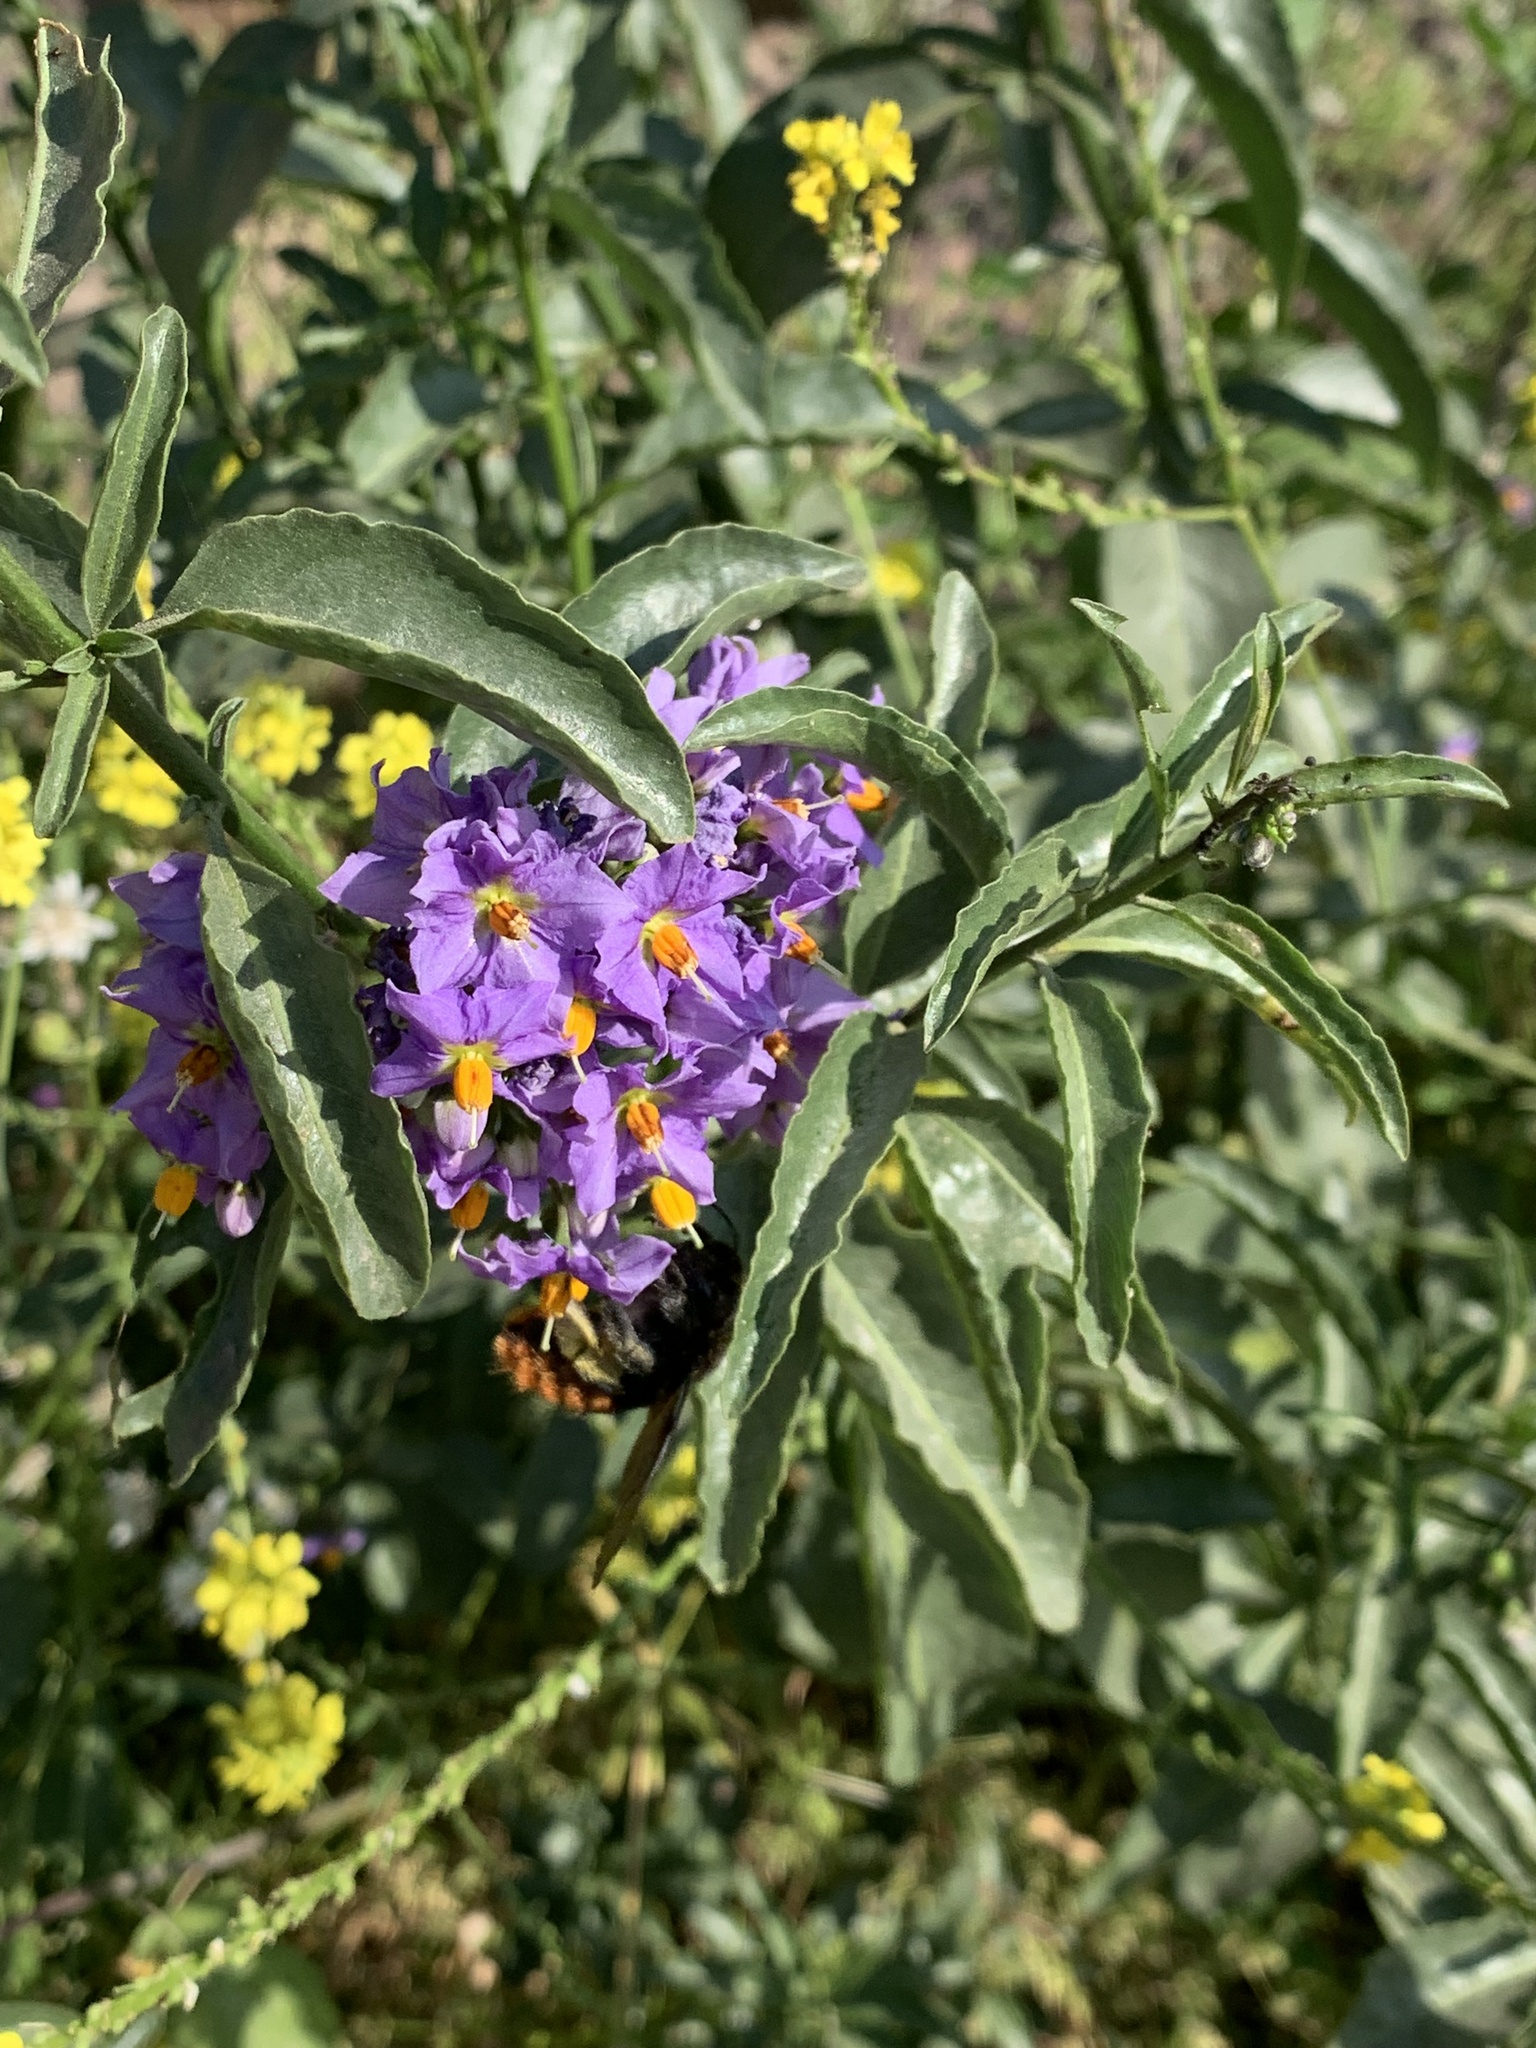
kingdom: Animalia
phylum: Arthropoda
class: Insecta
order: Hymenoptera
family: Apidae
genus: Xylocopa
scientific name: Xylocopa augusti
